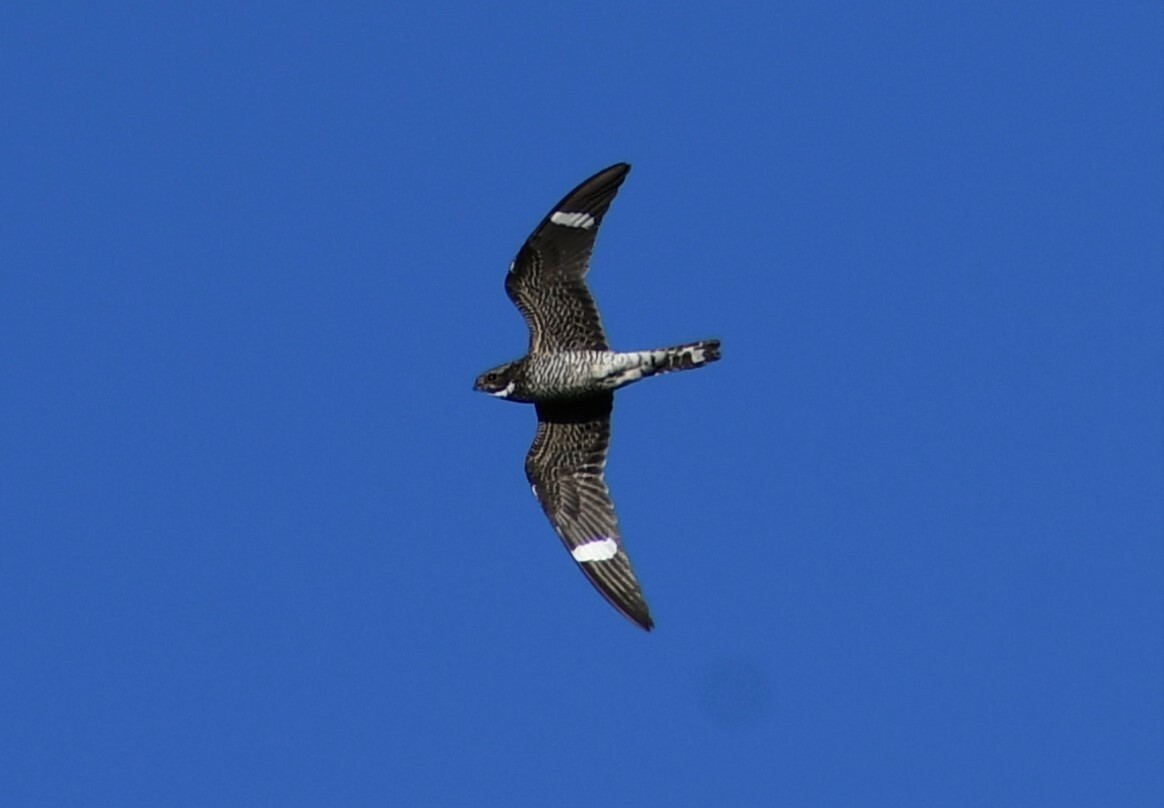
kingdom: Animalia
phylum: Chordata
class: Aves
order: Caprimulgiformes
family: Caprimulgidae
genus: Chordeiles
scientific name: Chordeiles minor
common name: Common nighthawk
